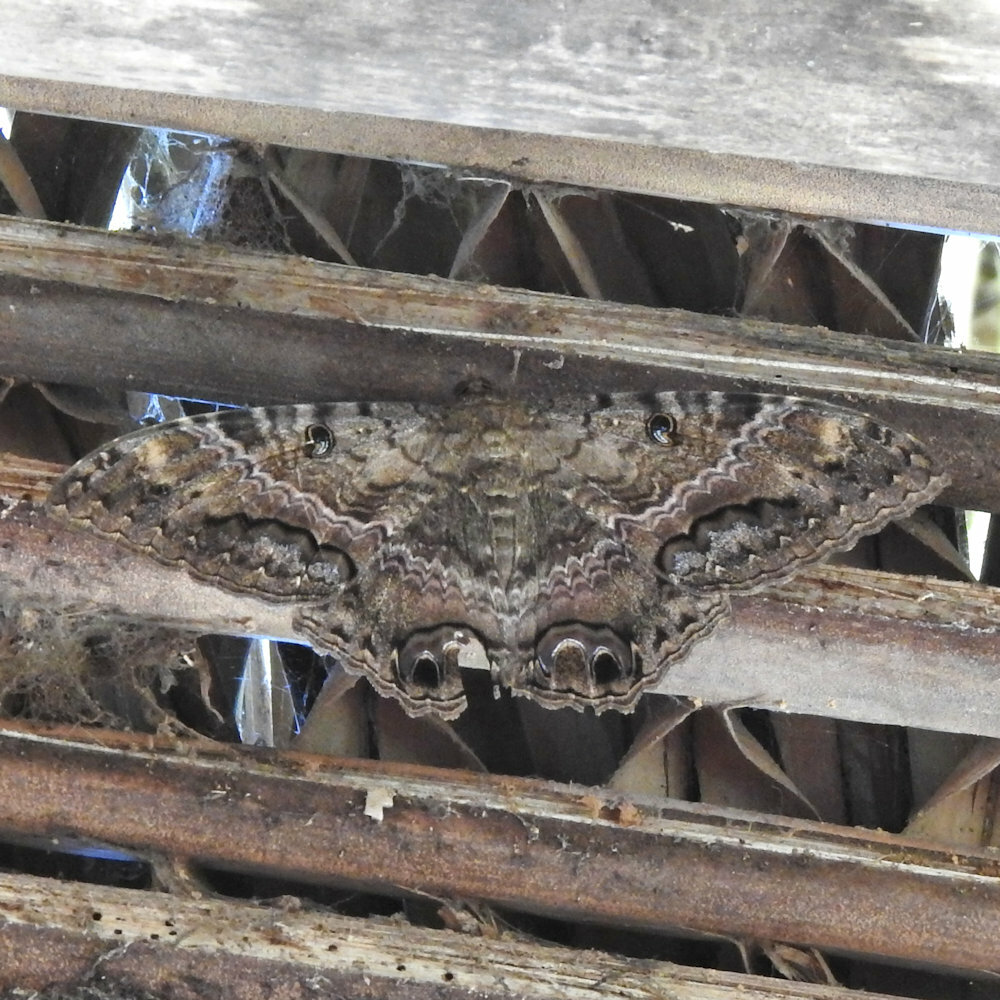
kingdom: Animalia
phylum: Arthropoda
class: Insecta
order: Lepidoptera
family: Erebidae
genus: Ascalapha
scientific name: Ascalapha odorata
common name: Black witch
